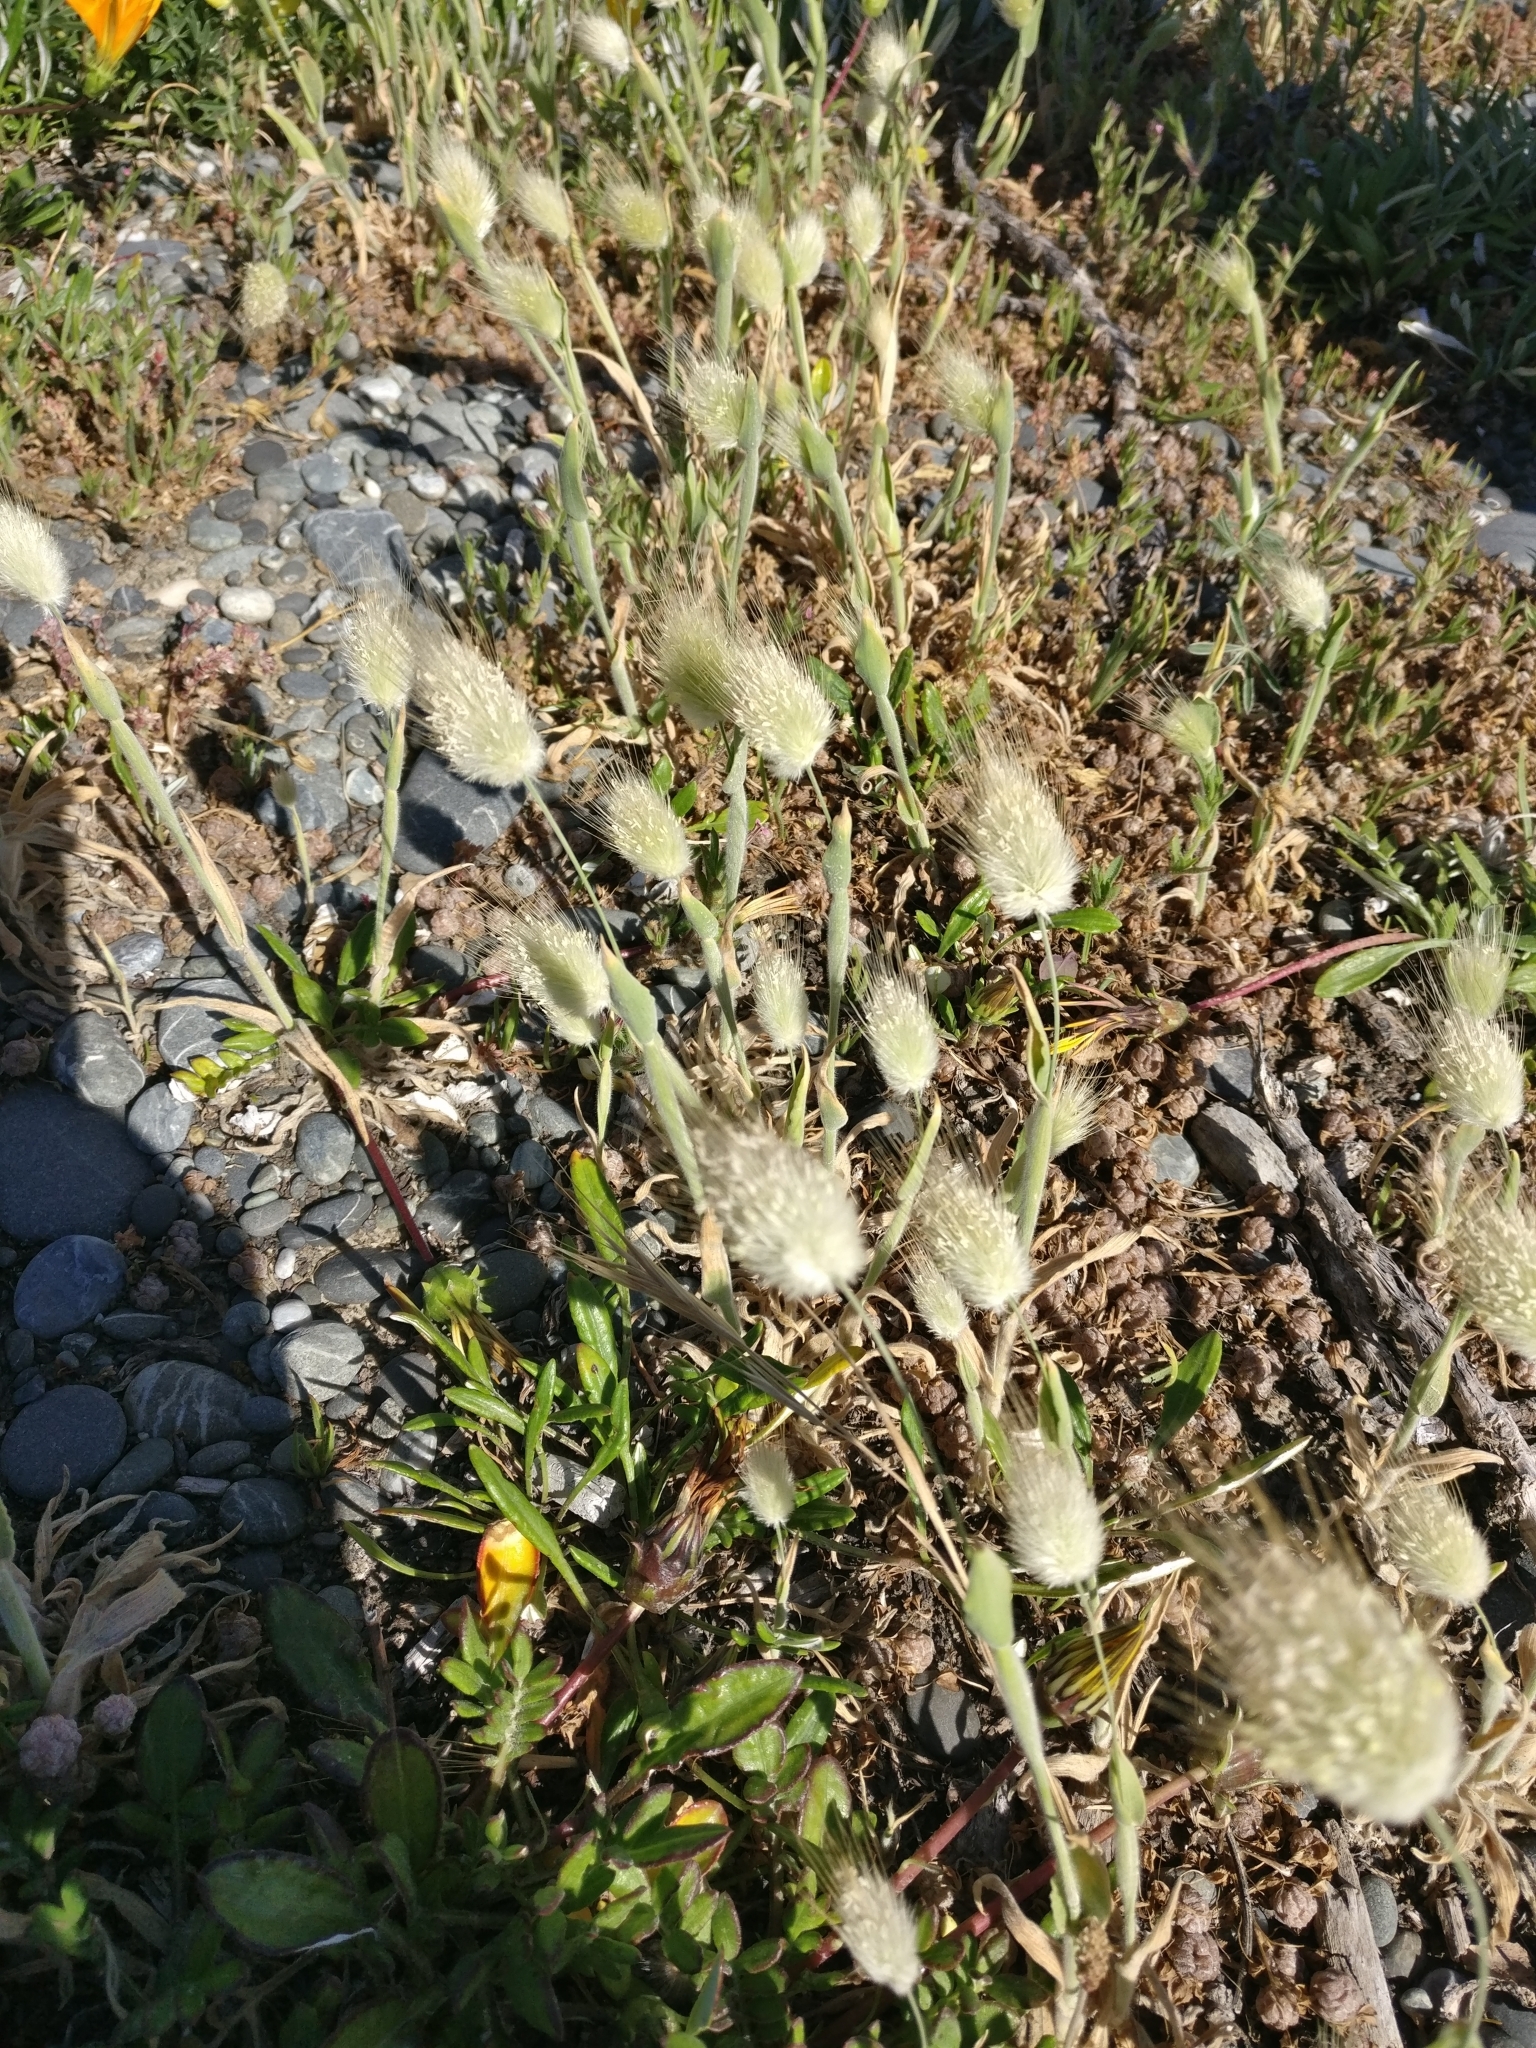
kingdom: Plantae
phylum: Tracheophyta
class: Liliopsida
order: Poales
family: Poaceae
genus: Lagurus
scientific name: Lagurus ovatus
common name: Hare's-tail
